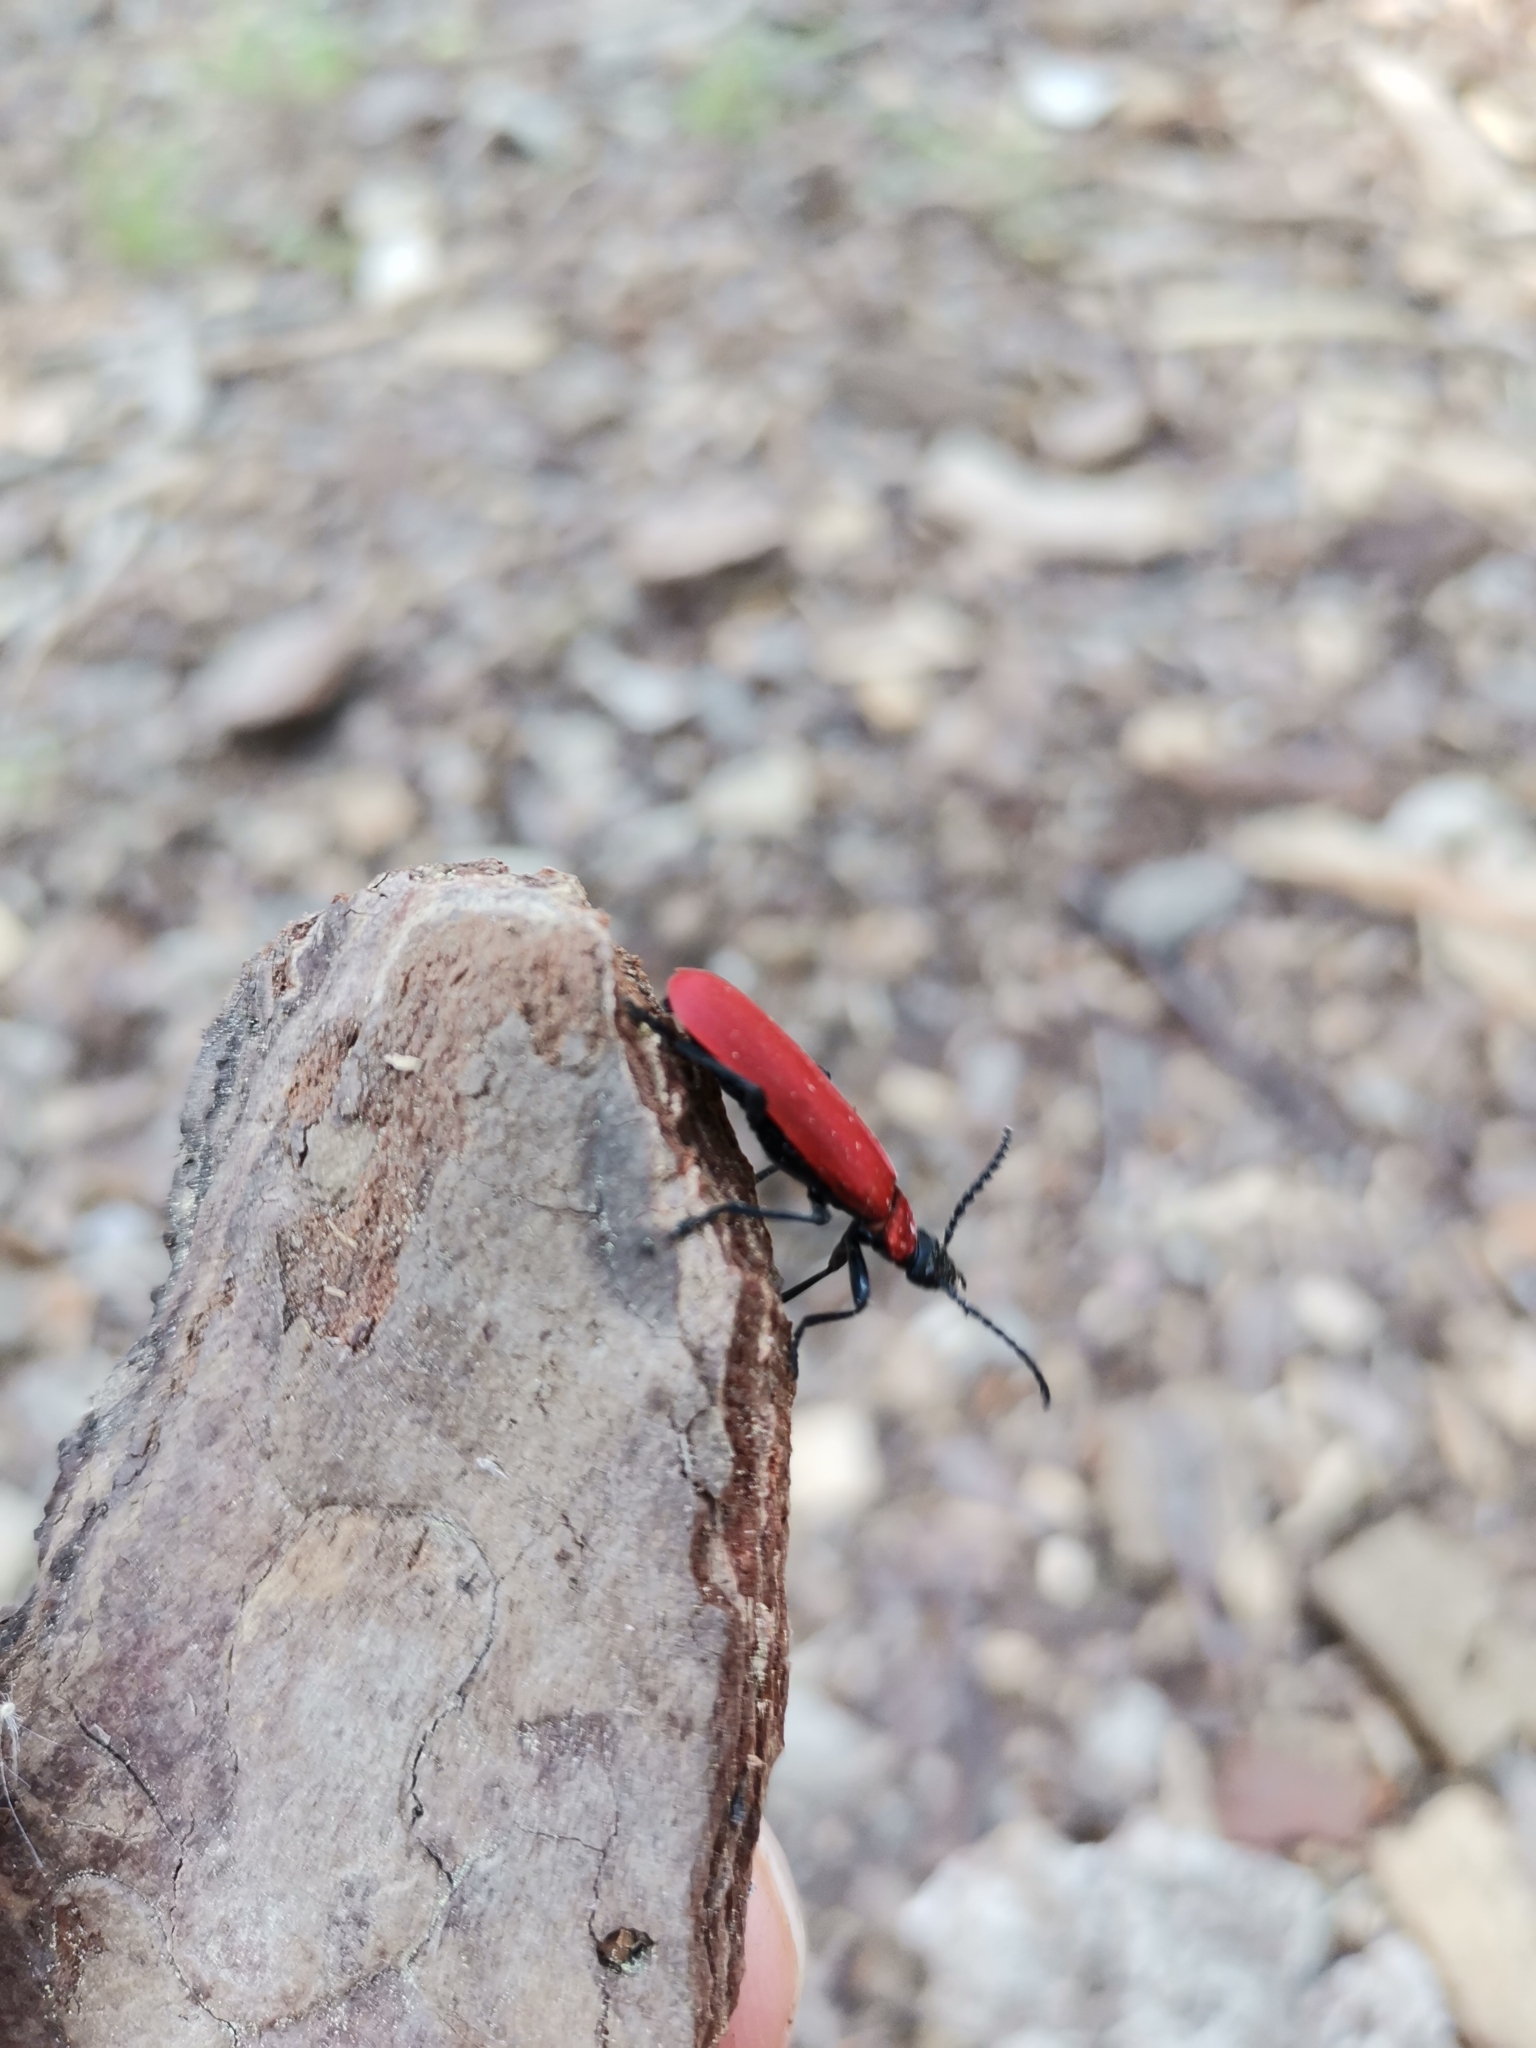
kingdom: Animalia
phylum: Arthropoda
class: Insecta
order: Coleoptera
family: Pyrochroidae
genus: Pyrochroa
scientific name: Pyrochroa coccinea
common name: Black-headed cardinal beetle
